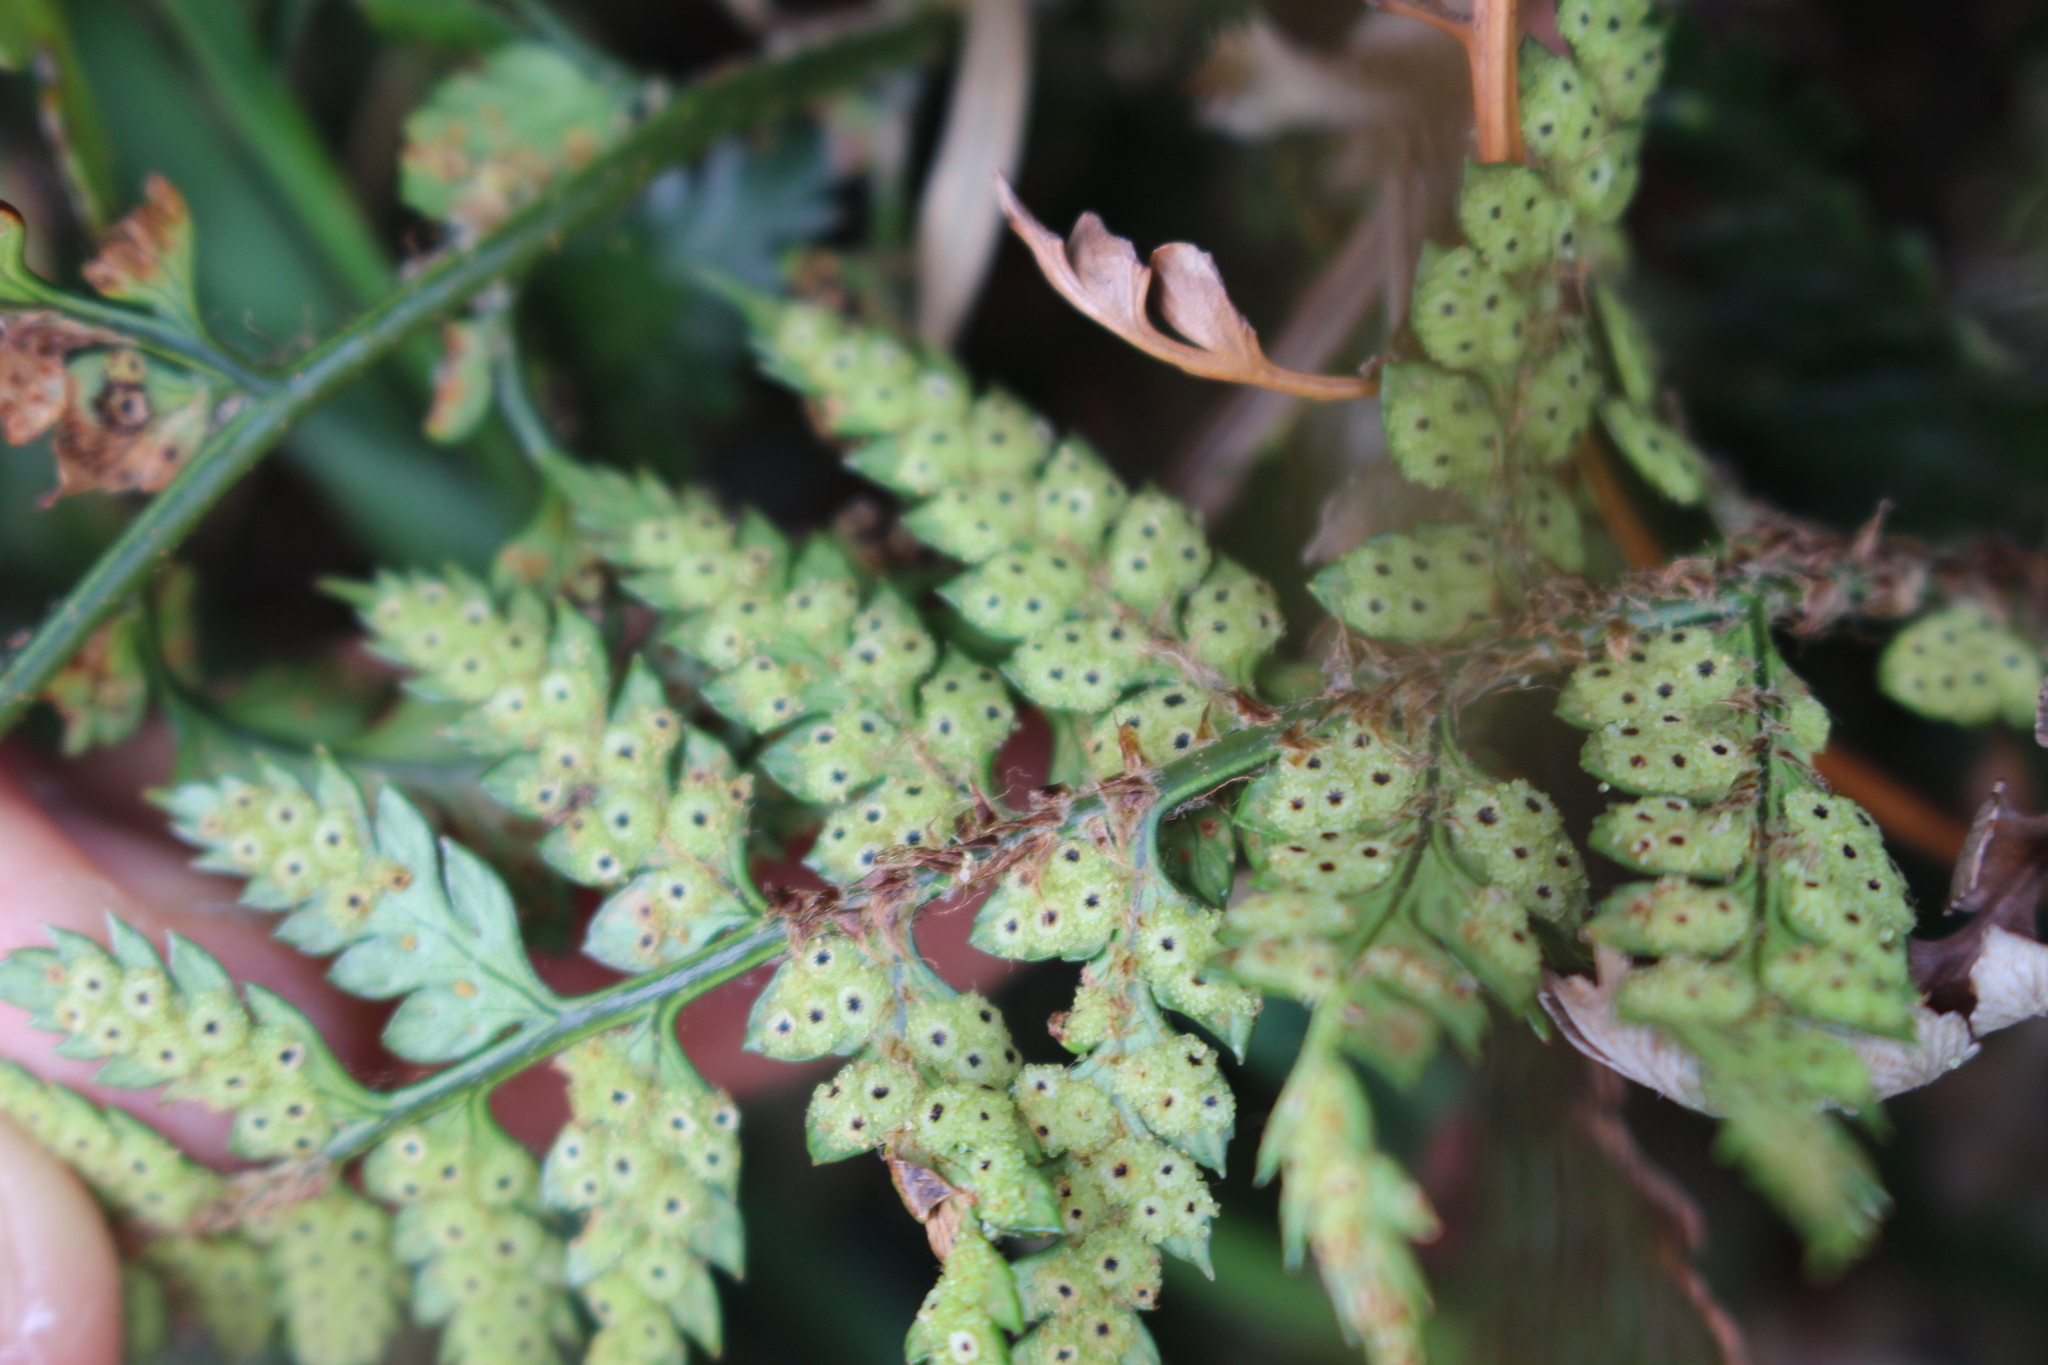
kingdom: Plantae
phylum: Tracheophyta
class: Polypodiopsida
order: Polypodiales
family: Dryopteridaceae
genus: Polystichum
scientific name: Polystichum
